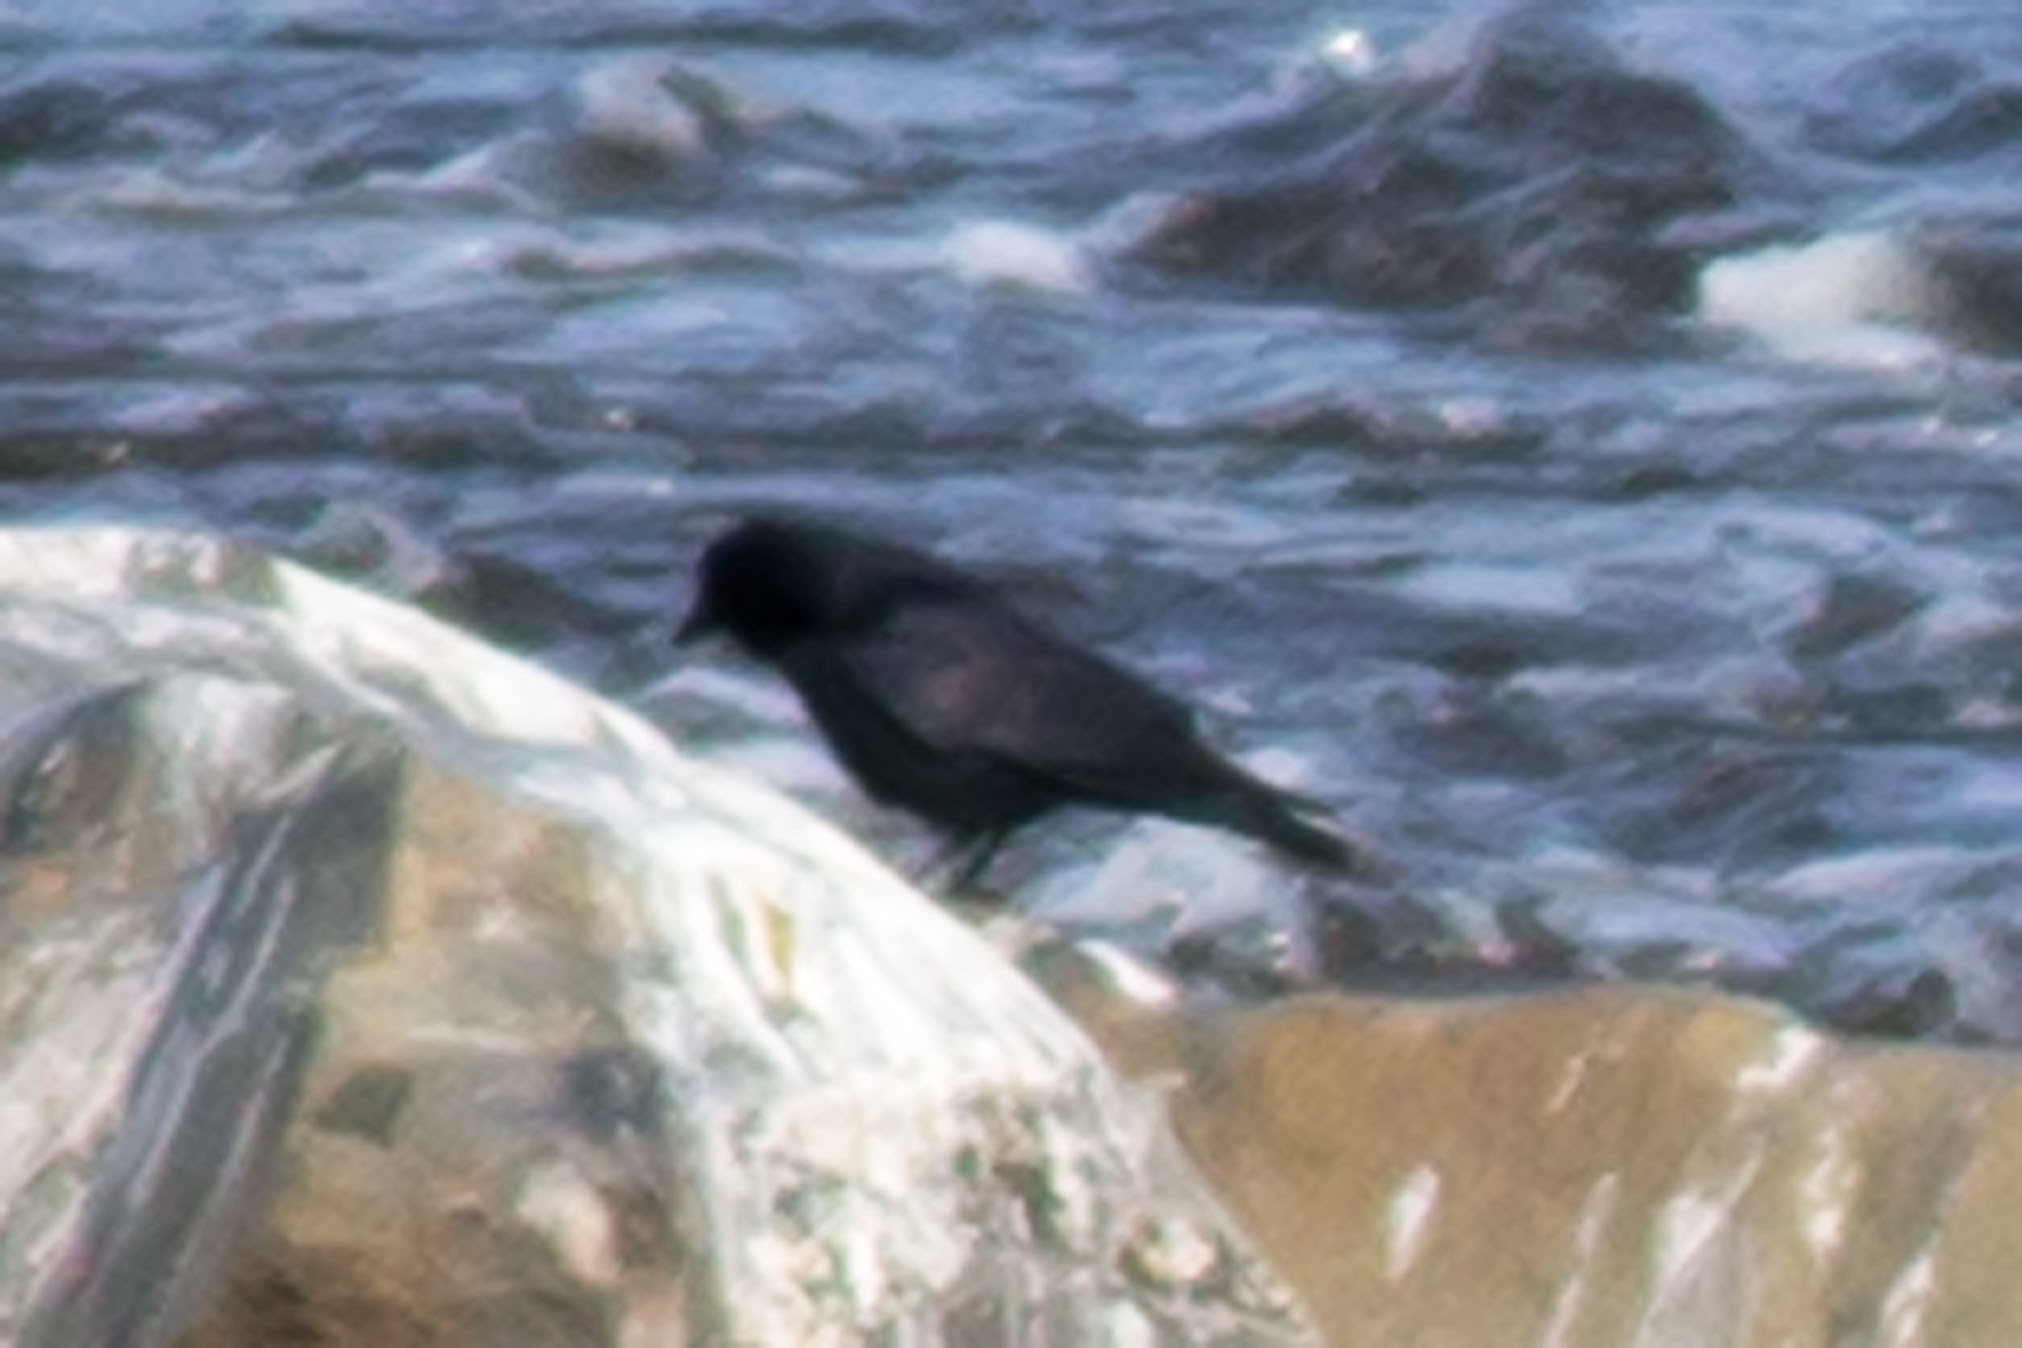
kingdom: Animalia
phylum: Chordata
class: Aves
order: Passeriformes
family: Corvidae
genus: Corvus
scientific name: Corvus ossifragus
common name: Fish crow
